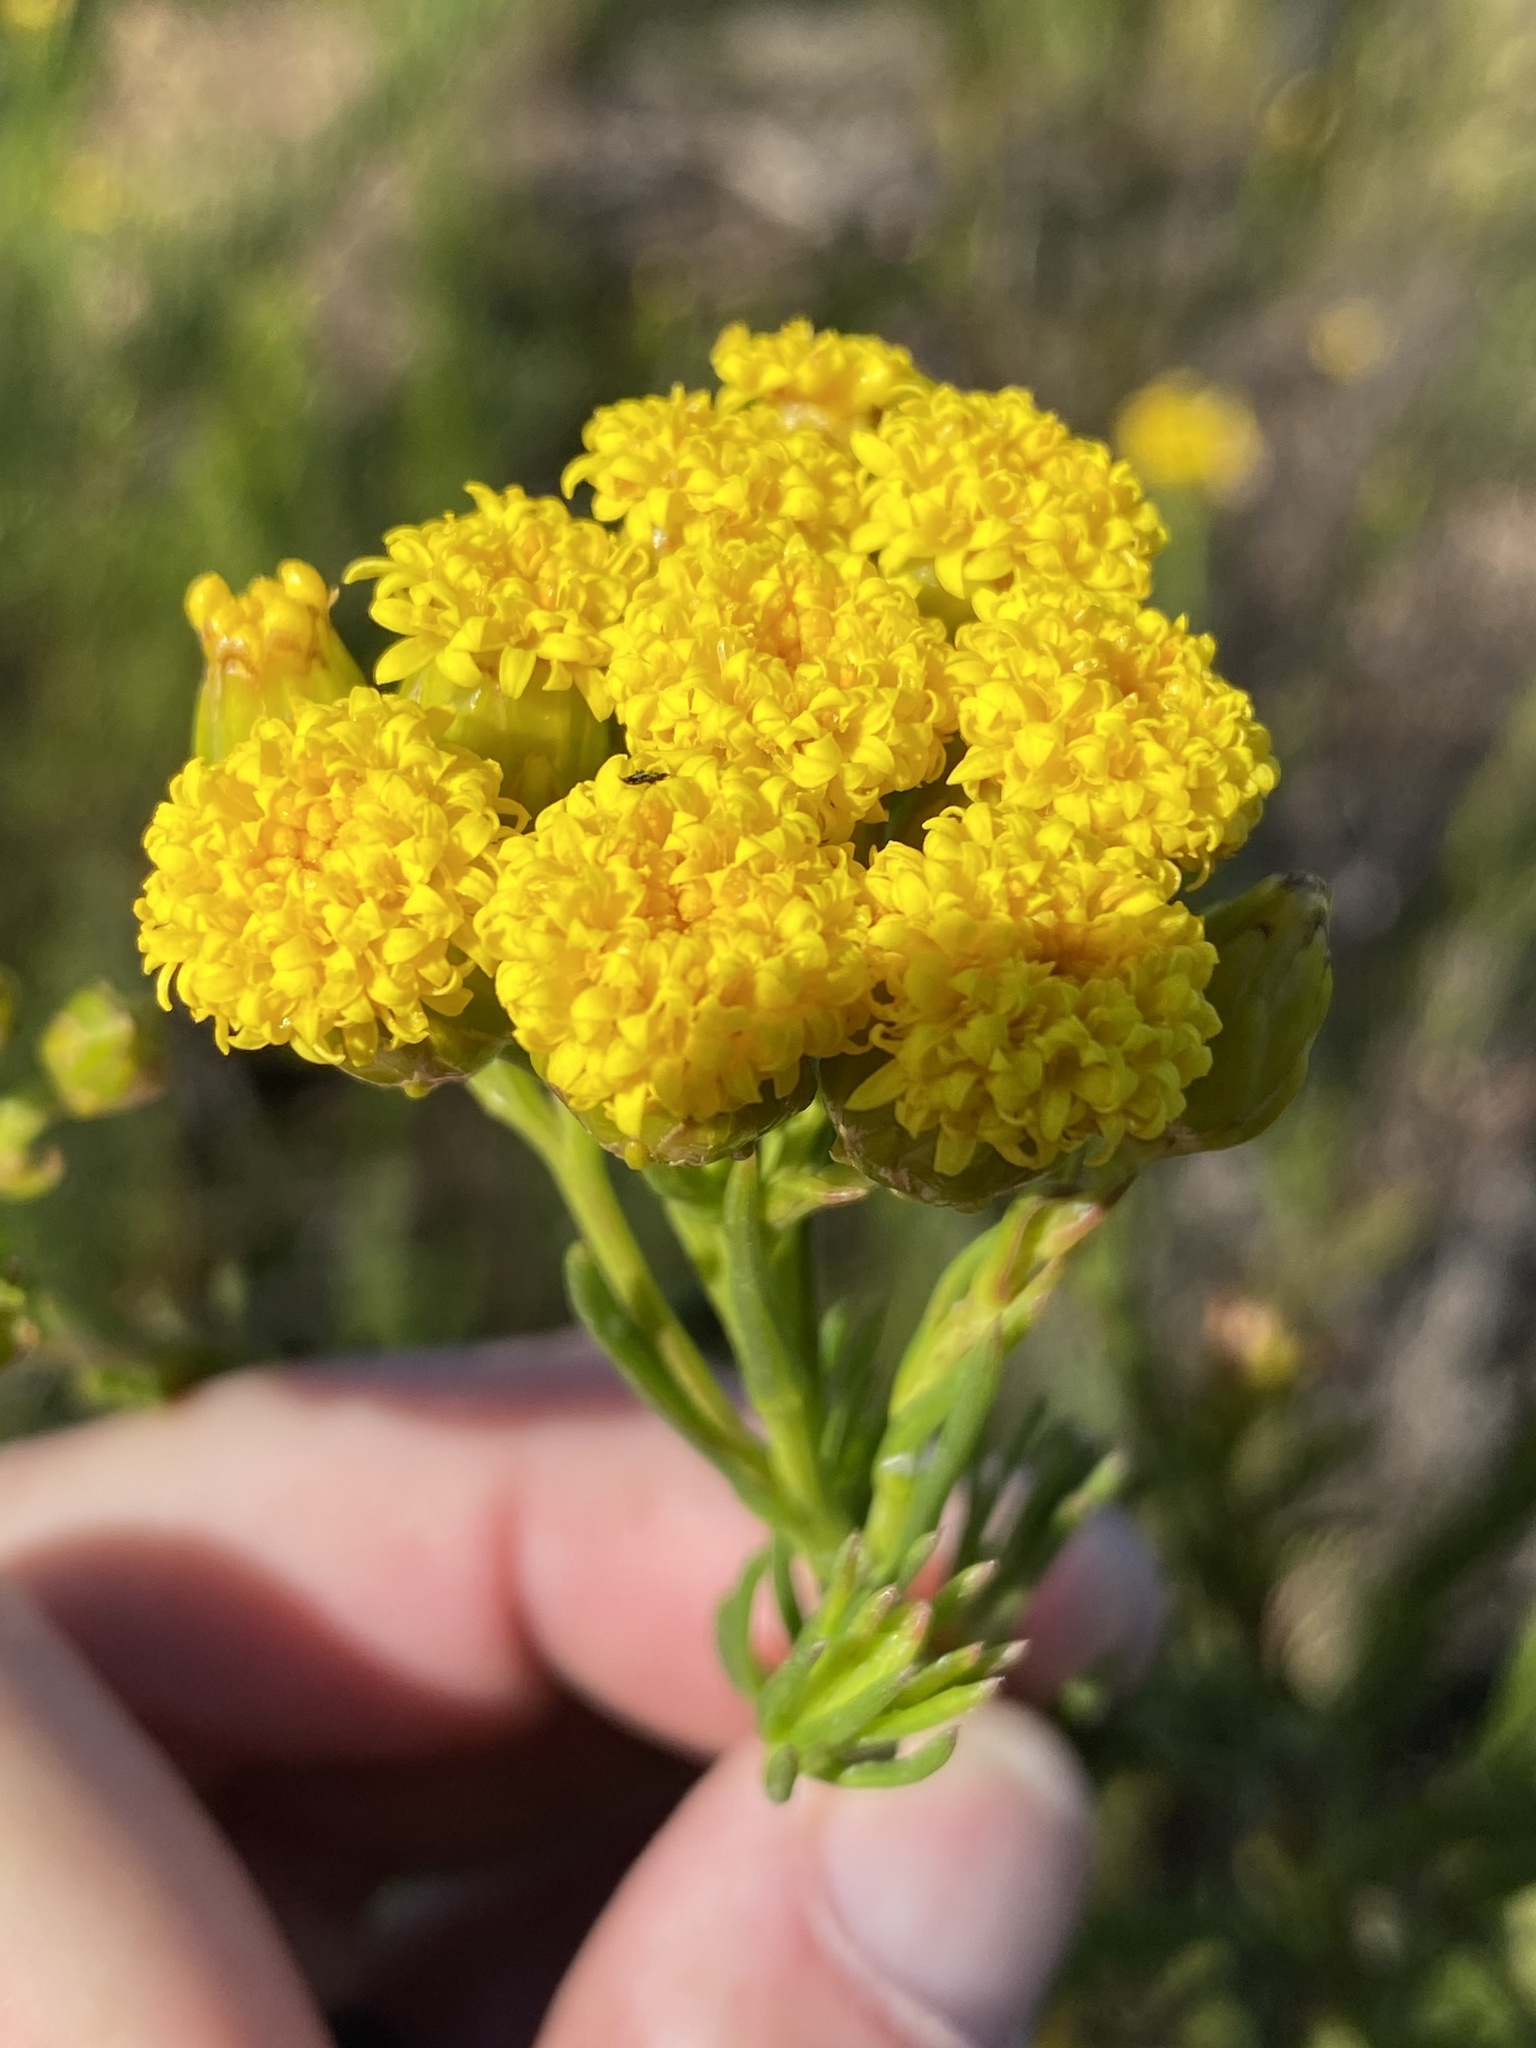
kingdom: Plantae
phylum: Tracheophyta
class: Magnoliopsida
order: Asterales
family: Asteraceae
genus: Athanasia
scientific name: Athanasia linifolia
